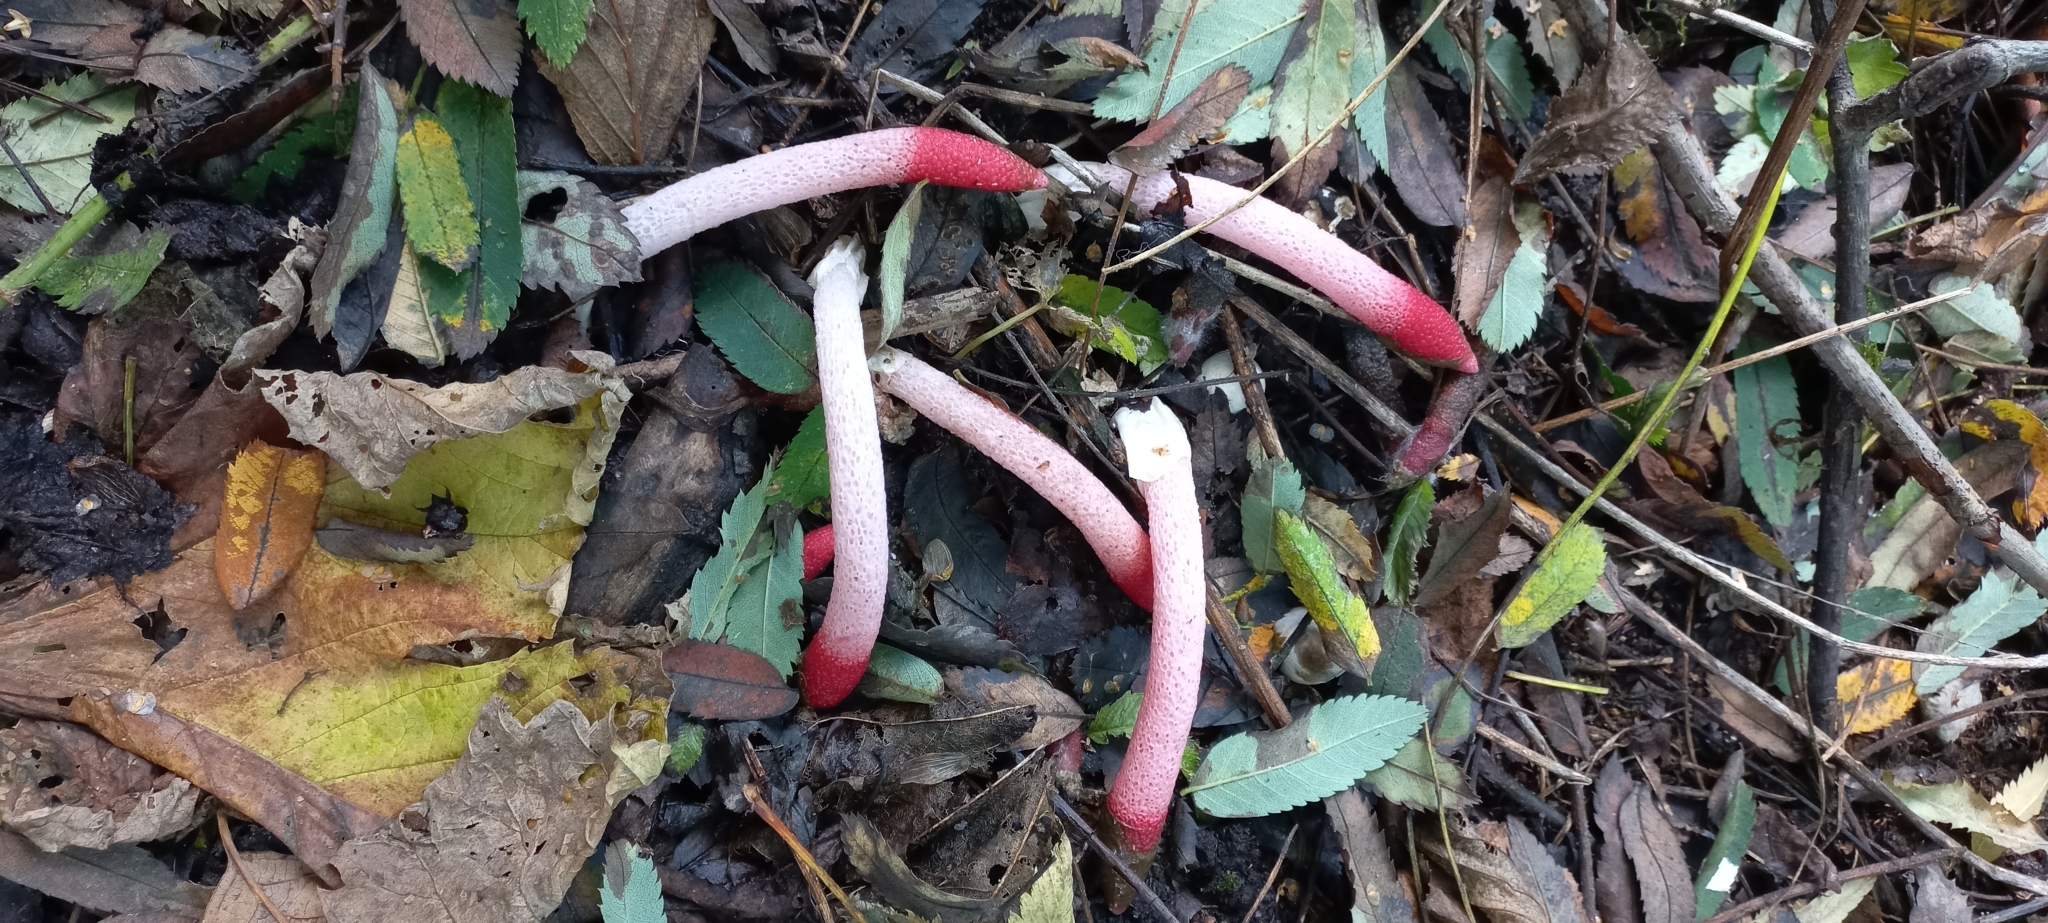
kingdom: Fungi
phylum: Basidiomycota
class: Agaricomycetes
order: Phallales
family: Phallaceae
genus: Mutinus
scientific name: Mutinus ravenelii
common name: Red stinkhorn
